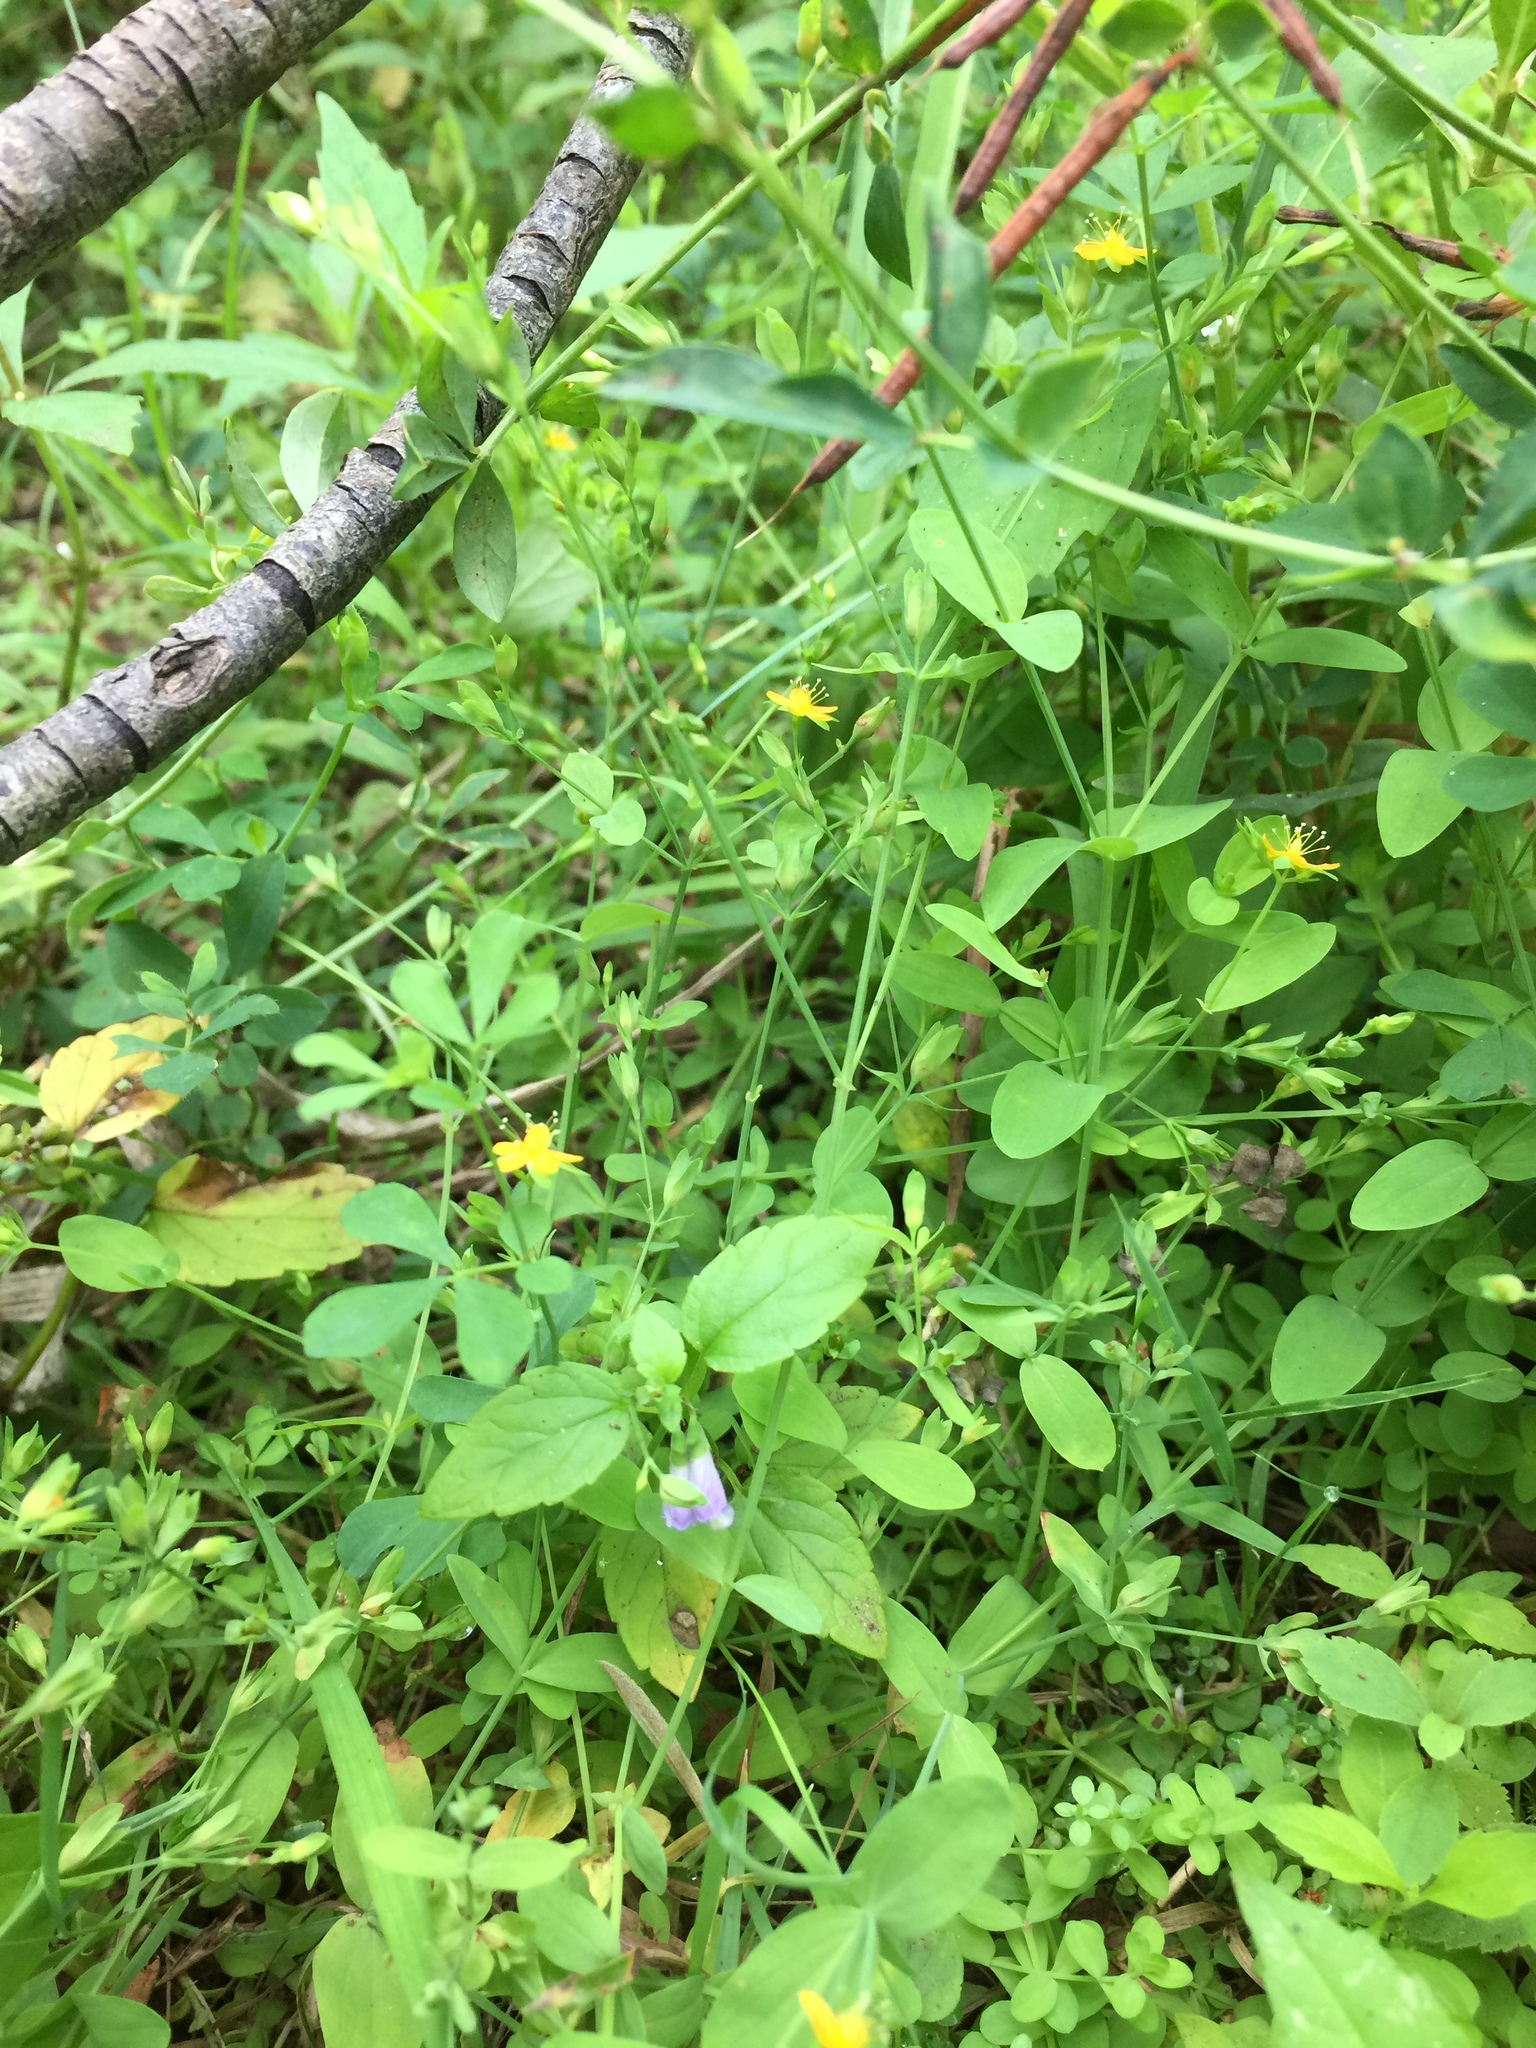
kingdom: Plantae
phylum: Tracheophyta
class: Magnoliopsida
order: Lamiales
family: Lamiaceae
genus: Scutellaria
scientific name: Scutellaria lateriflora
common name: Blue skullcap
